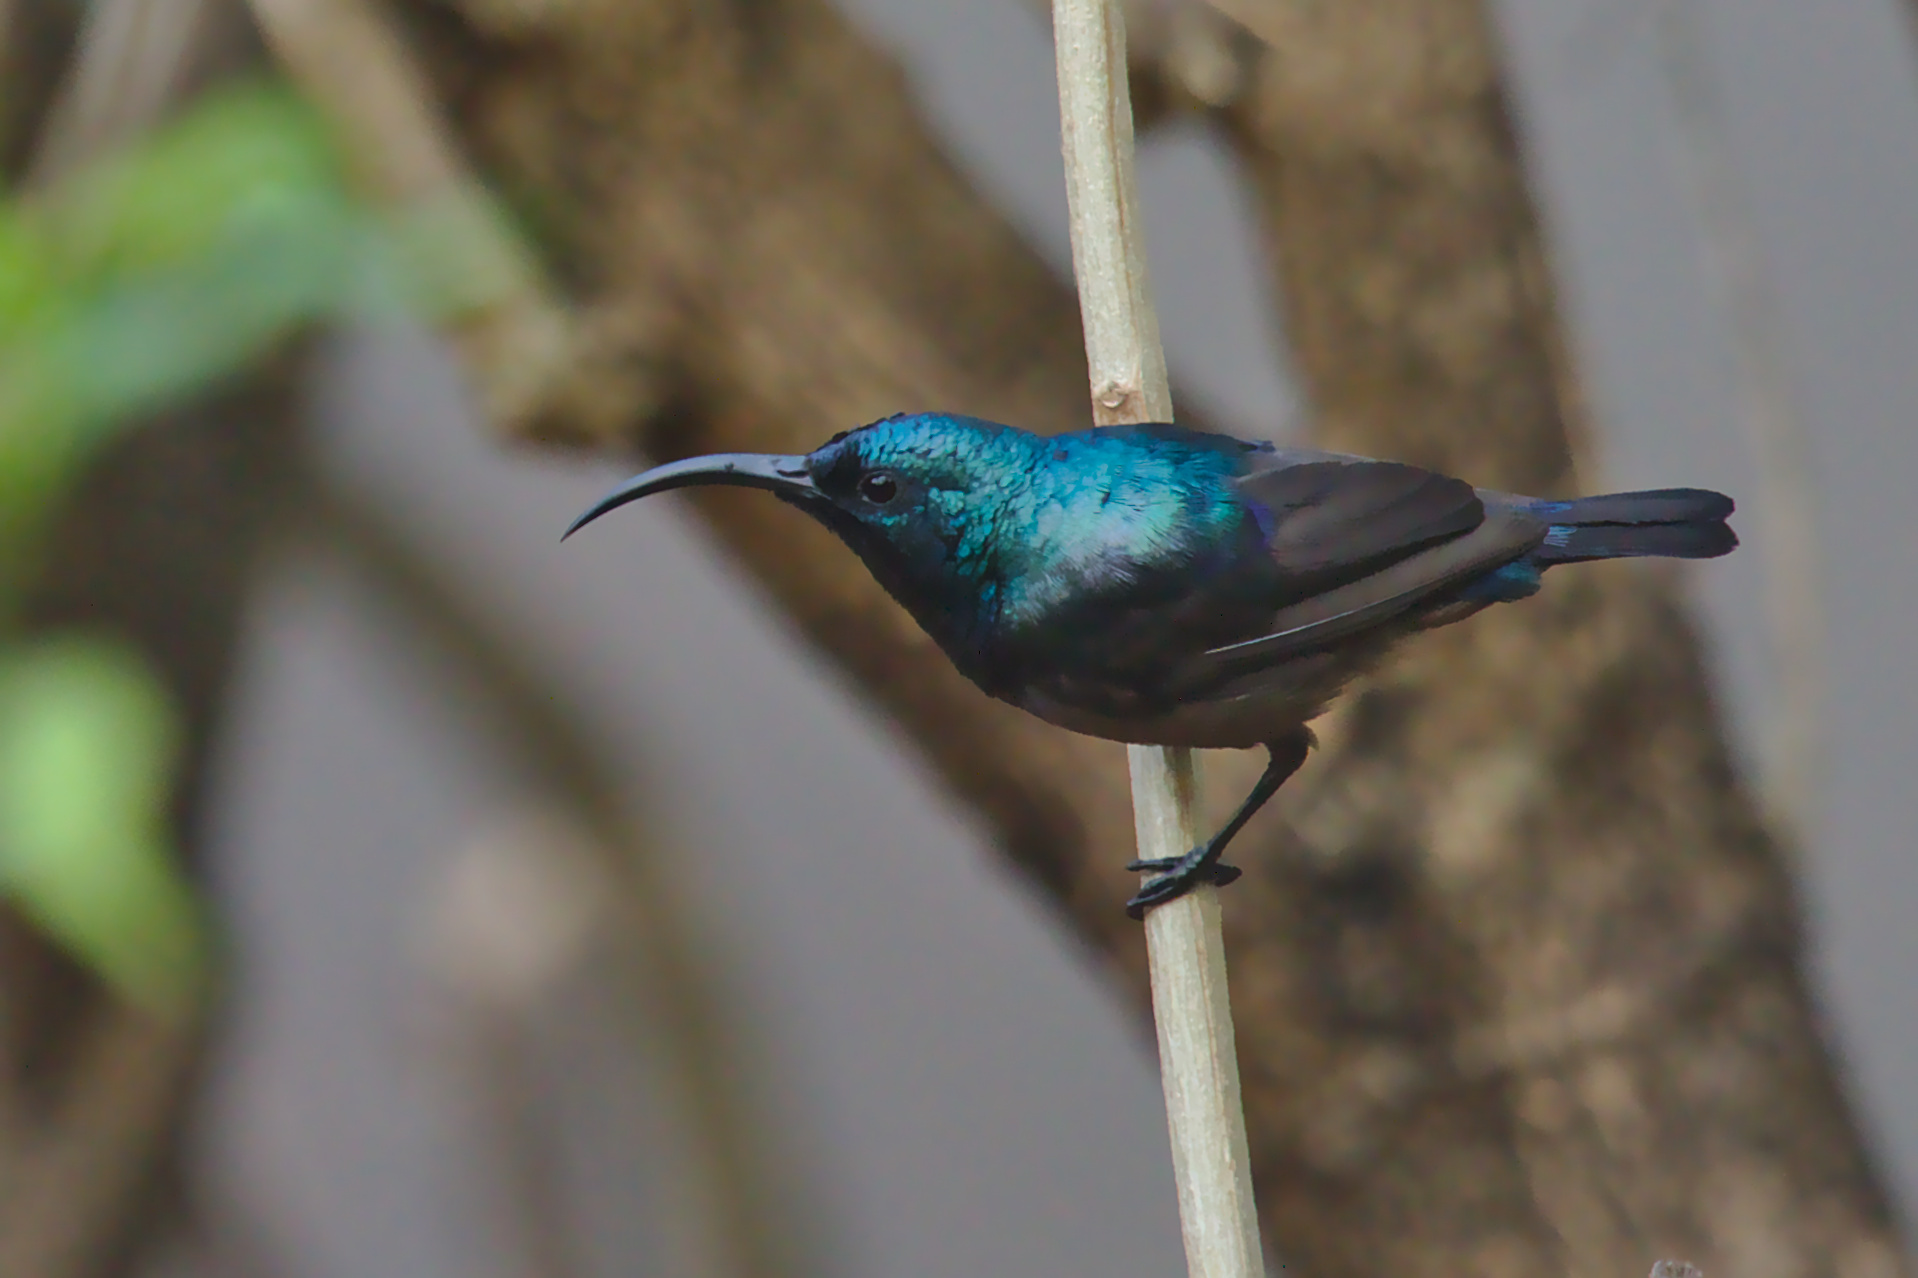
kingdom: Animalia
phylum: Chordata
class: Aves
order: Passeriformes
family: Nectariniidae
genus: Cinnyris
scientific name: Cinnyris lotenius
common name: Loten's sunbird
